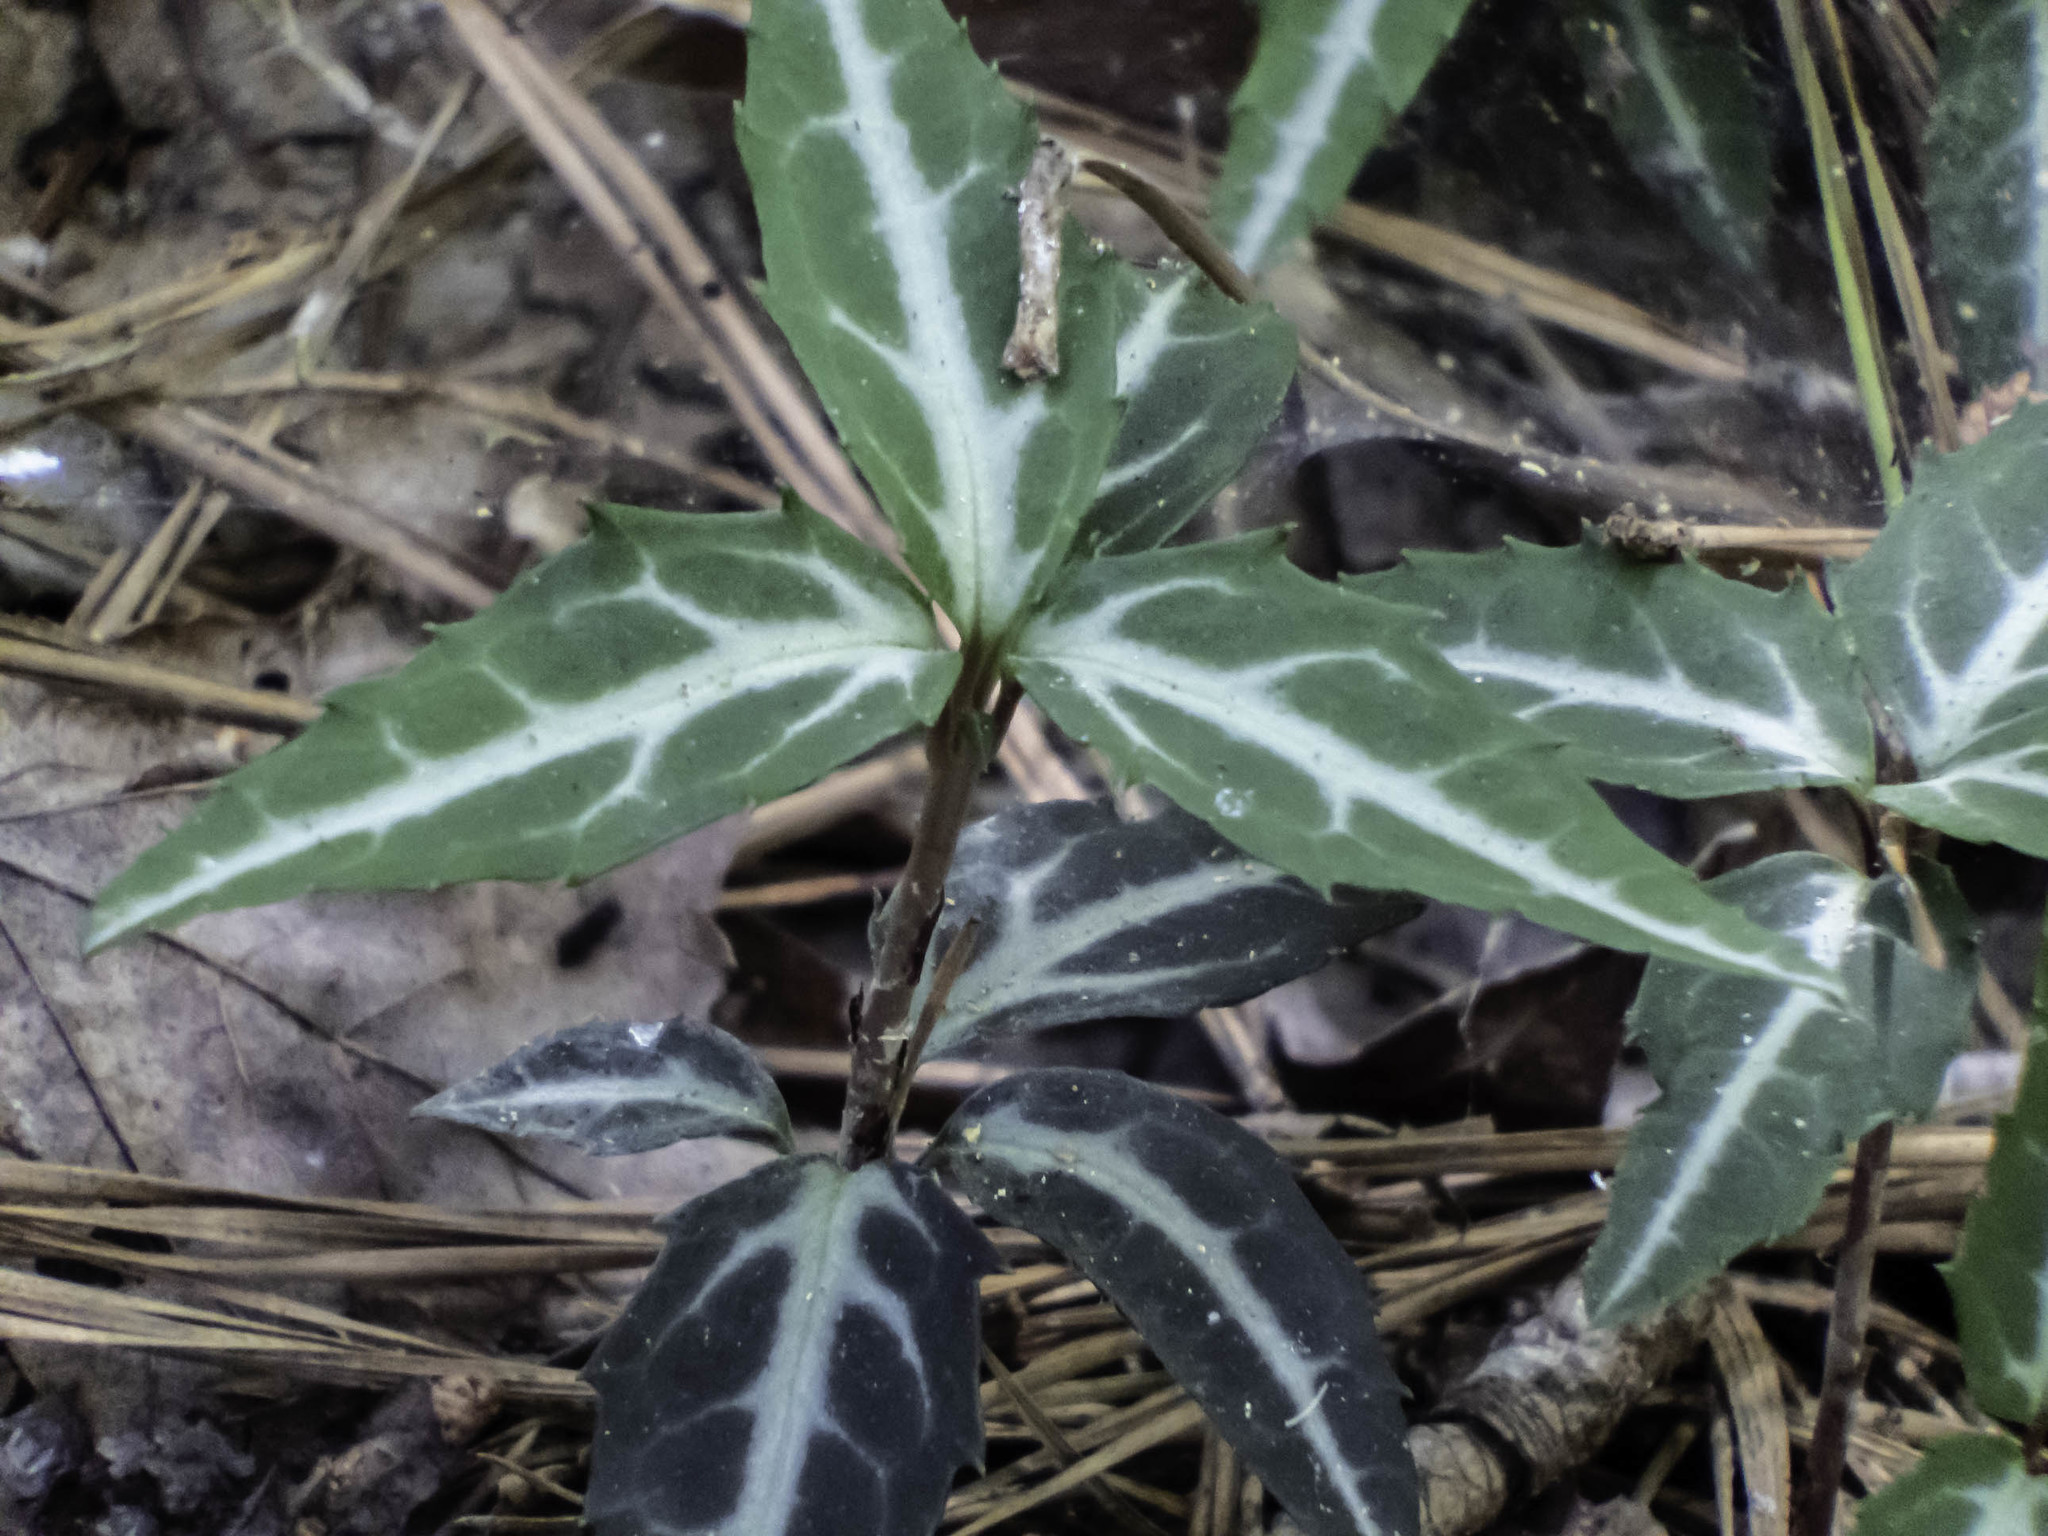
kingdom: Plantae
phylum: Tracheophyta
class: Magnoliopsida
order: Ericales
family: Ericaceae
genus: Chimaphila
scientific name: Chimaphila maculata
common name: Spotted pipsissewa
